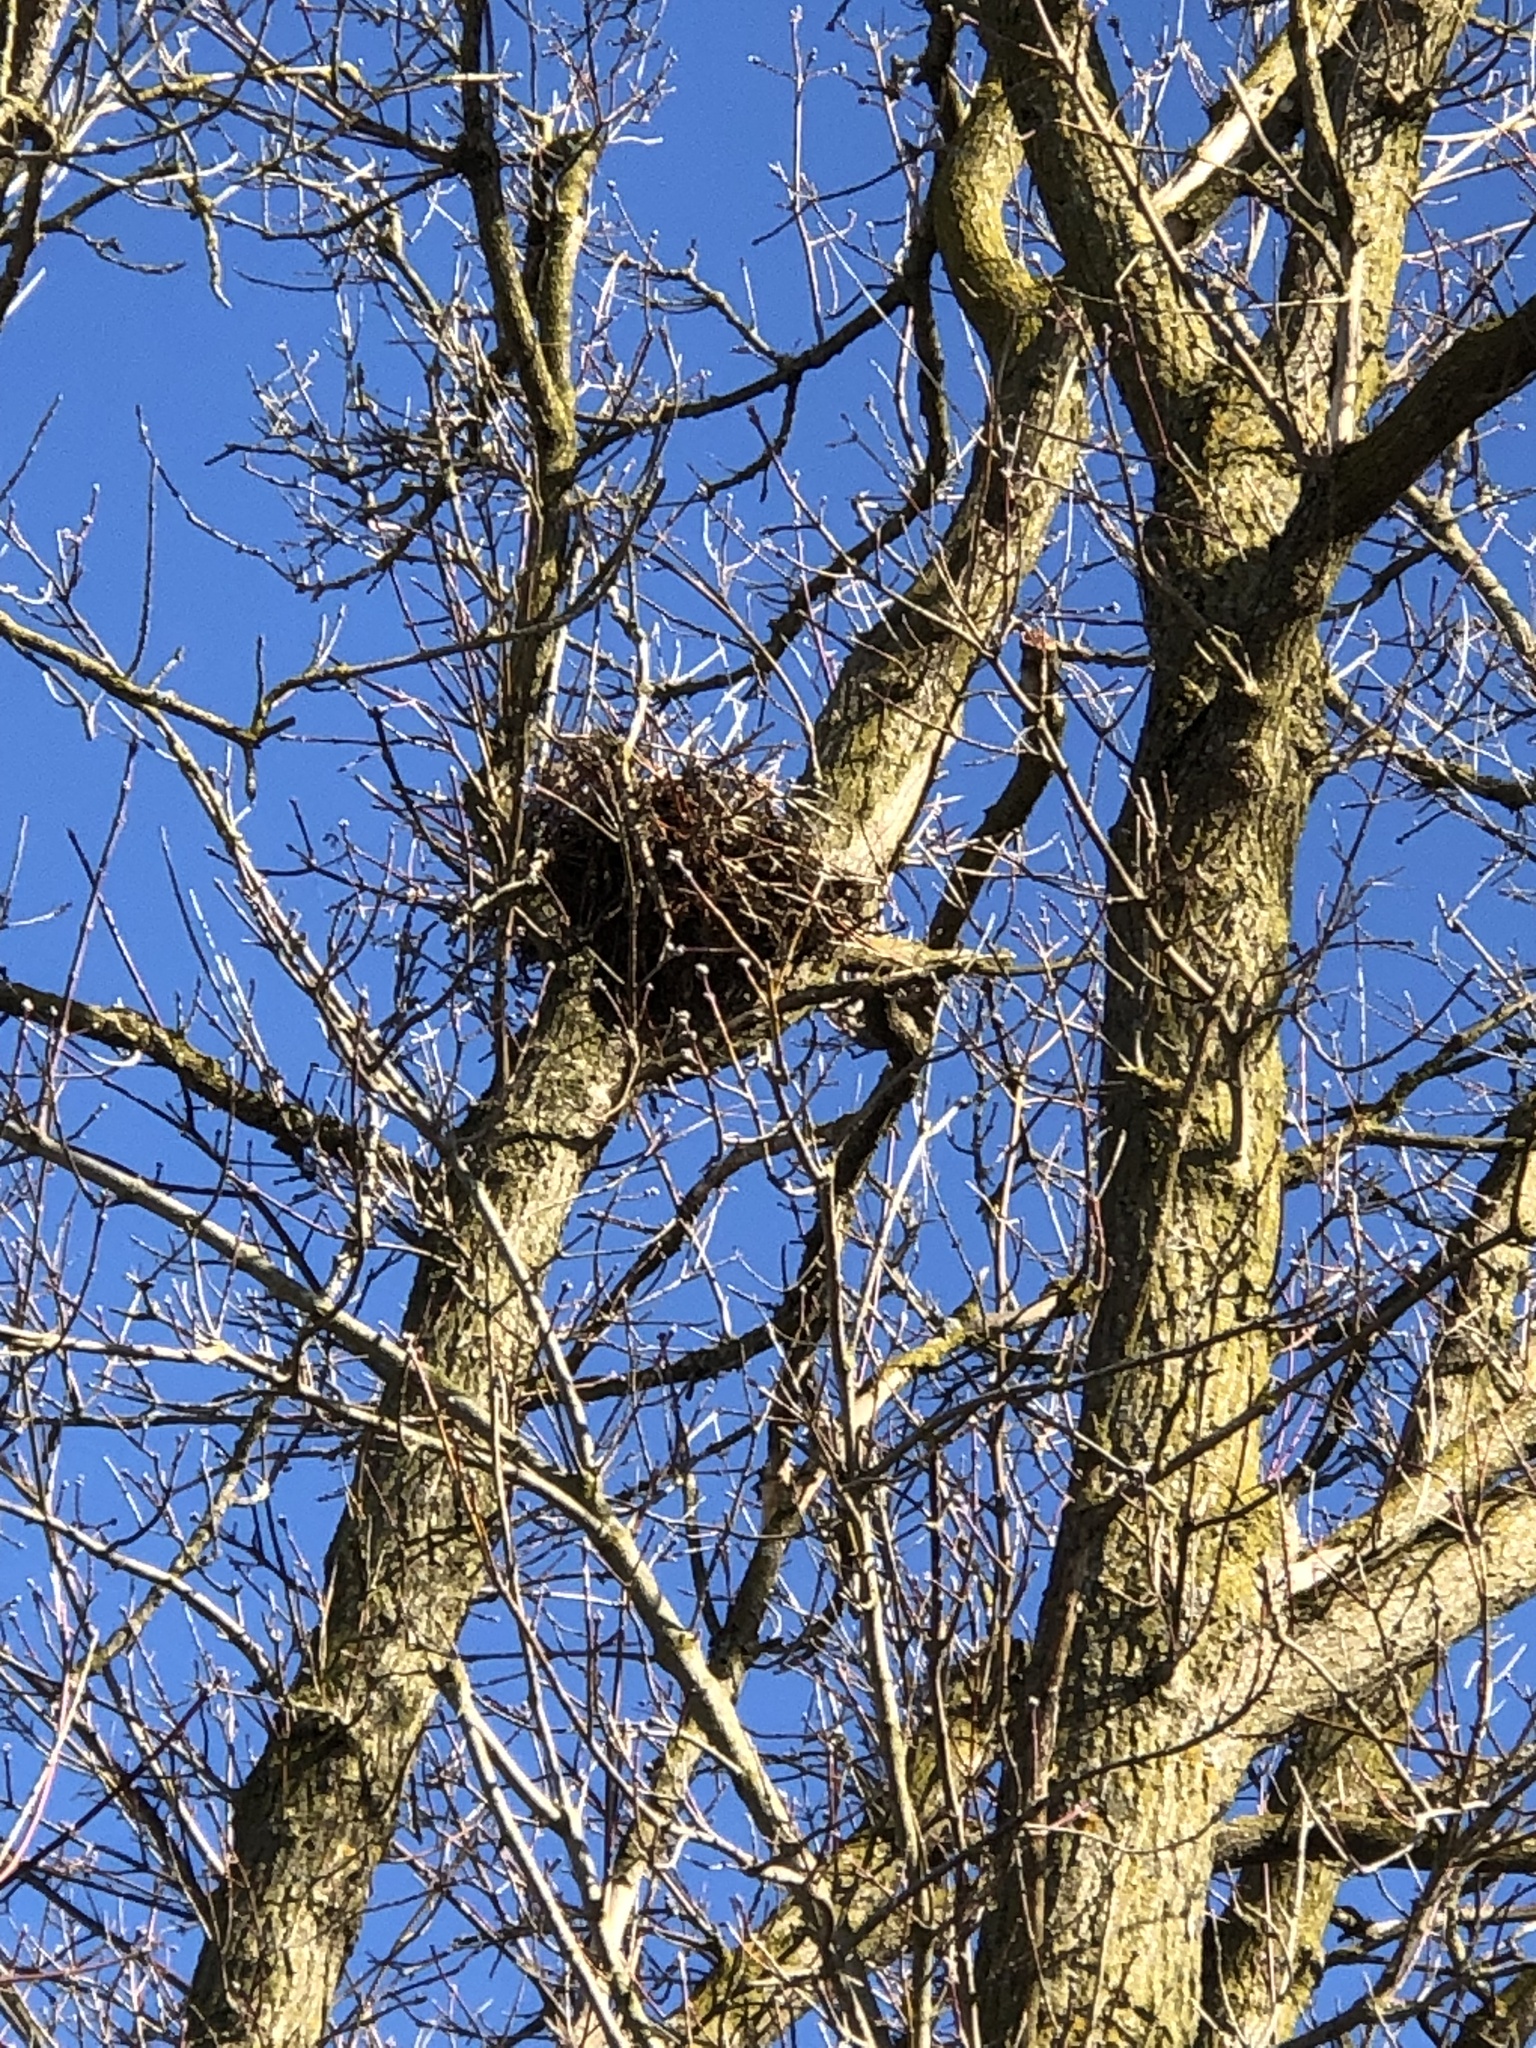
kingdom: Animalia
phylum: Chordata
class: Mammalia
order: Rodentia
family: Sciuridae
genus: Sciurus
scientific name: Sciurus carolinensis
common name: Eastern gray squirrel
